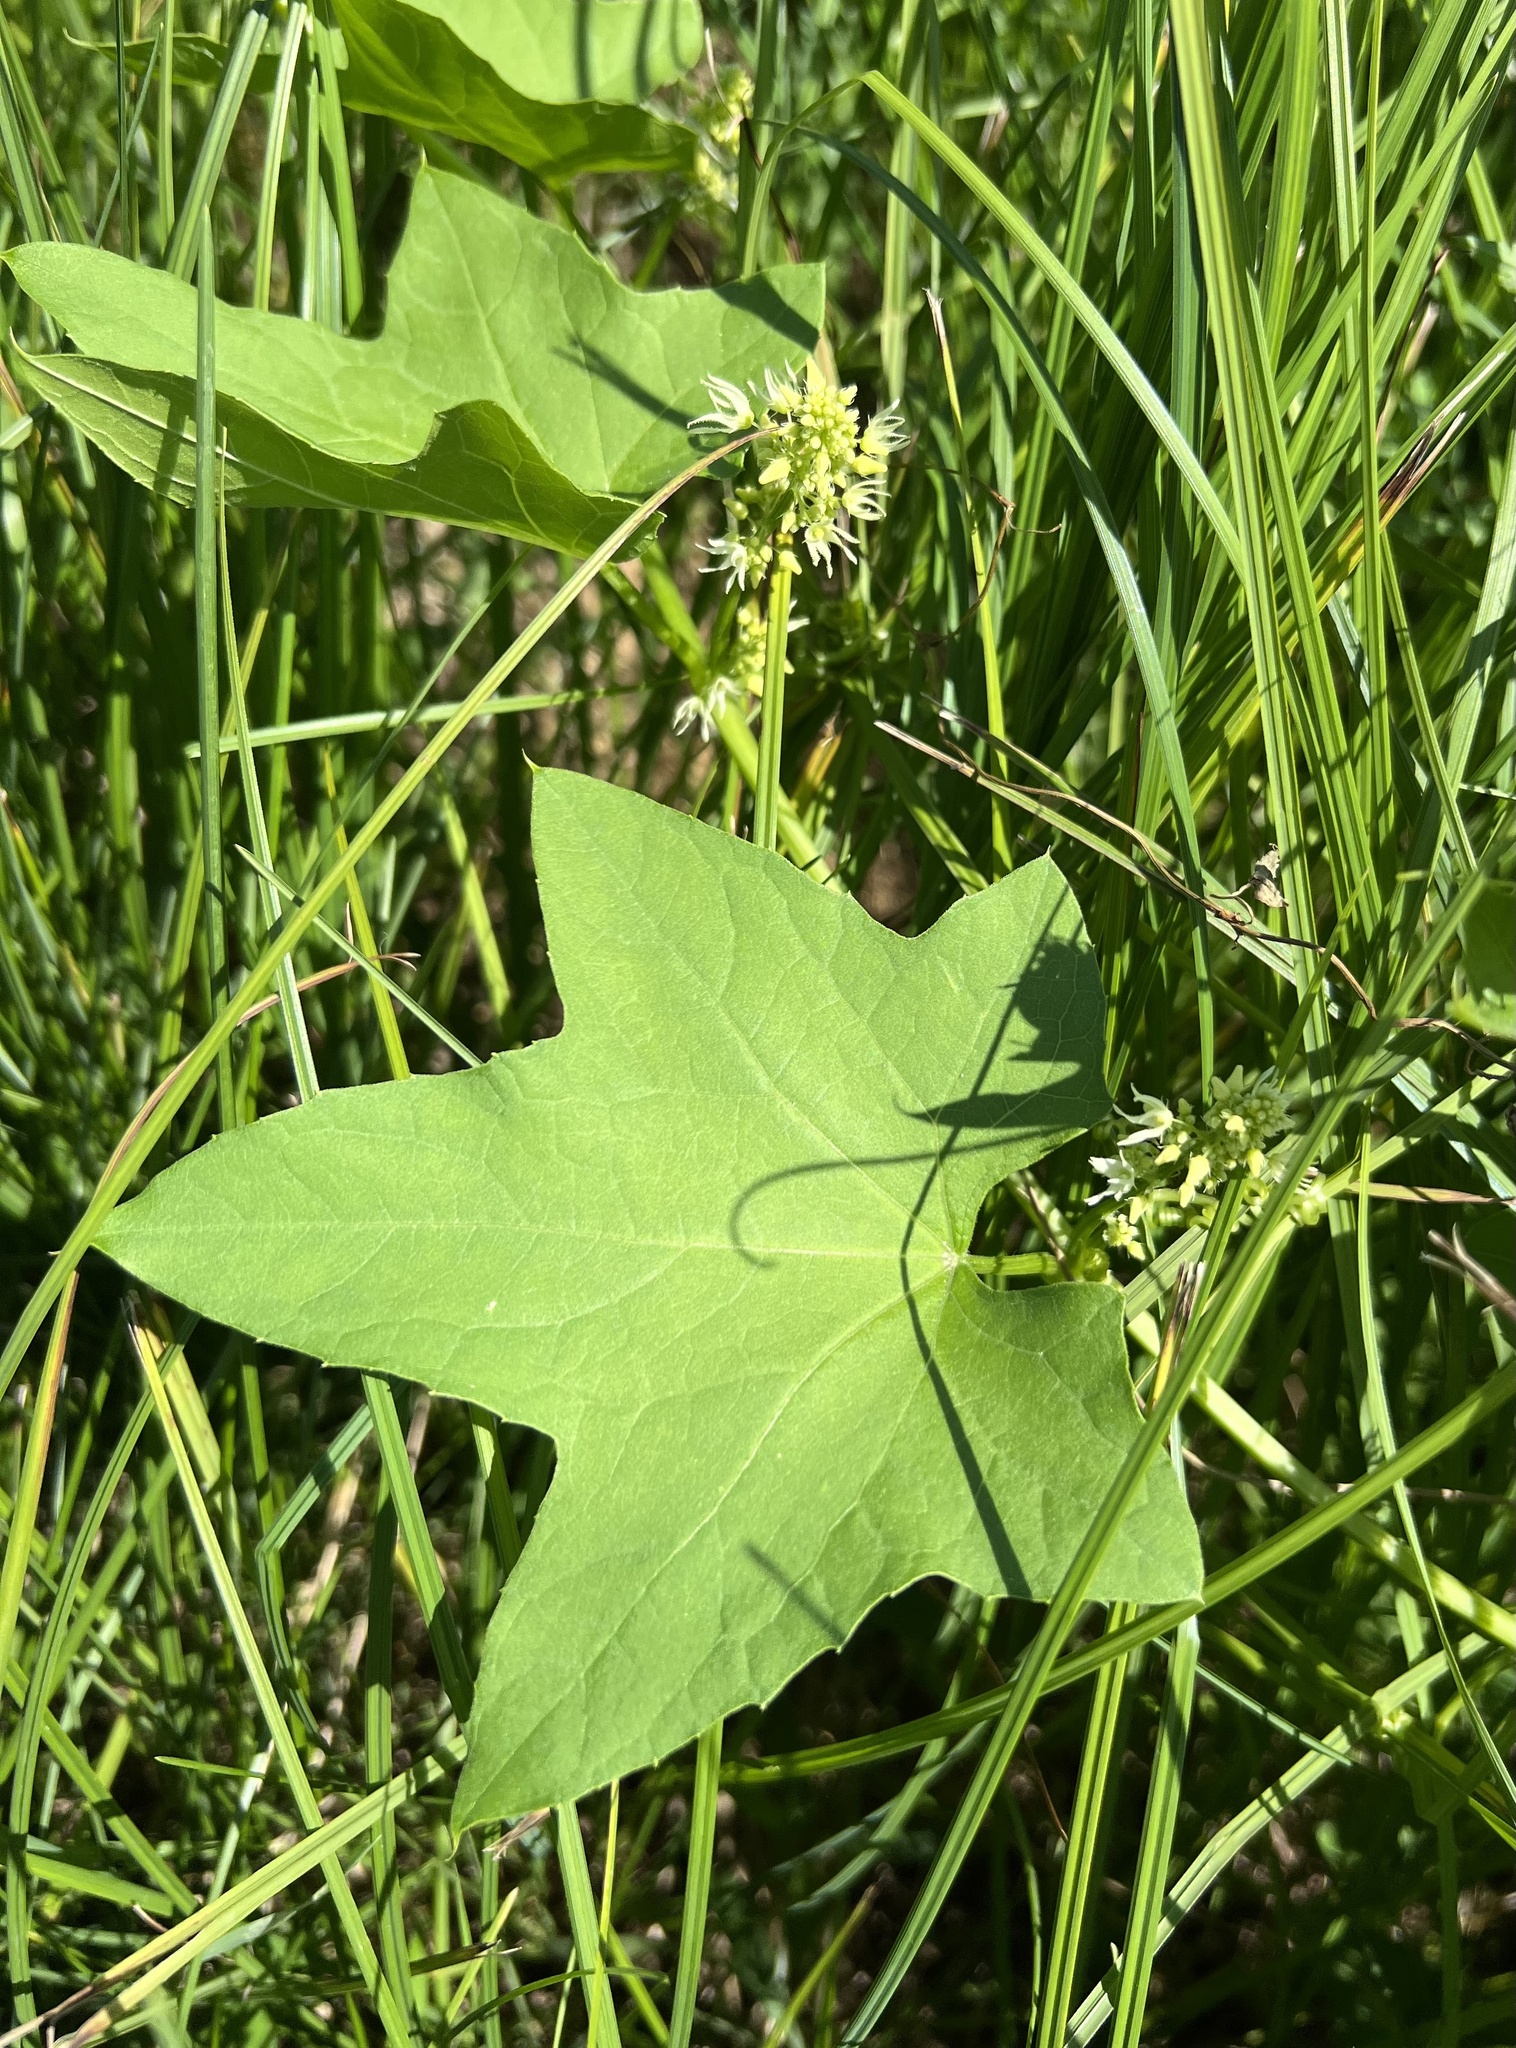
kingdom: Plantae
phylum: Tracheophyta
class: Magnoliopsida
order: Cucurbitales
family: Cucurbitaceae
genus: Echinocystis
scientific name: Echinocystis lobata
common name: Wild cucumber
